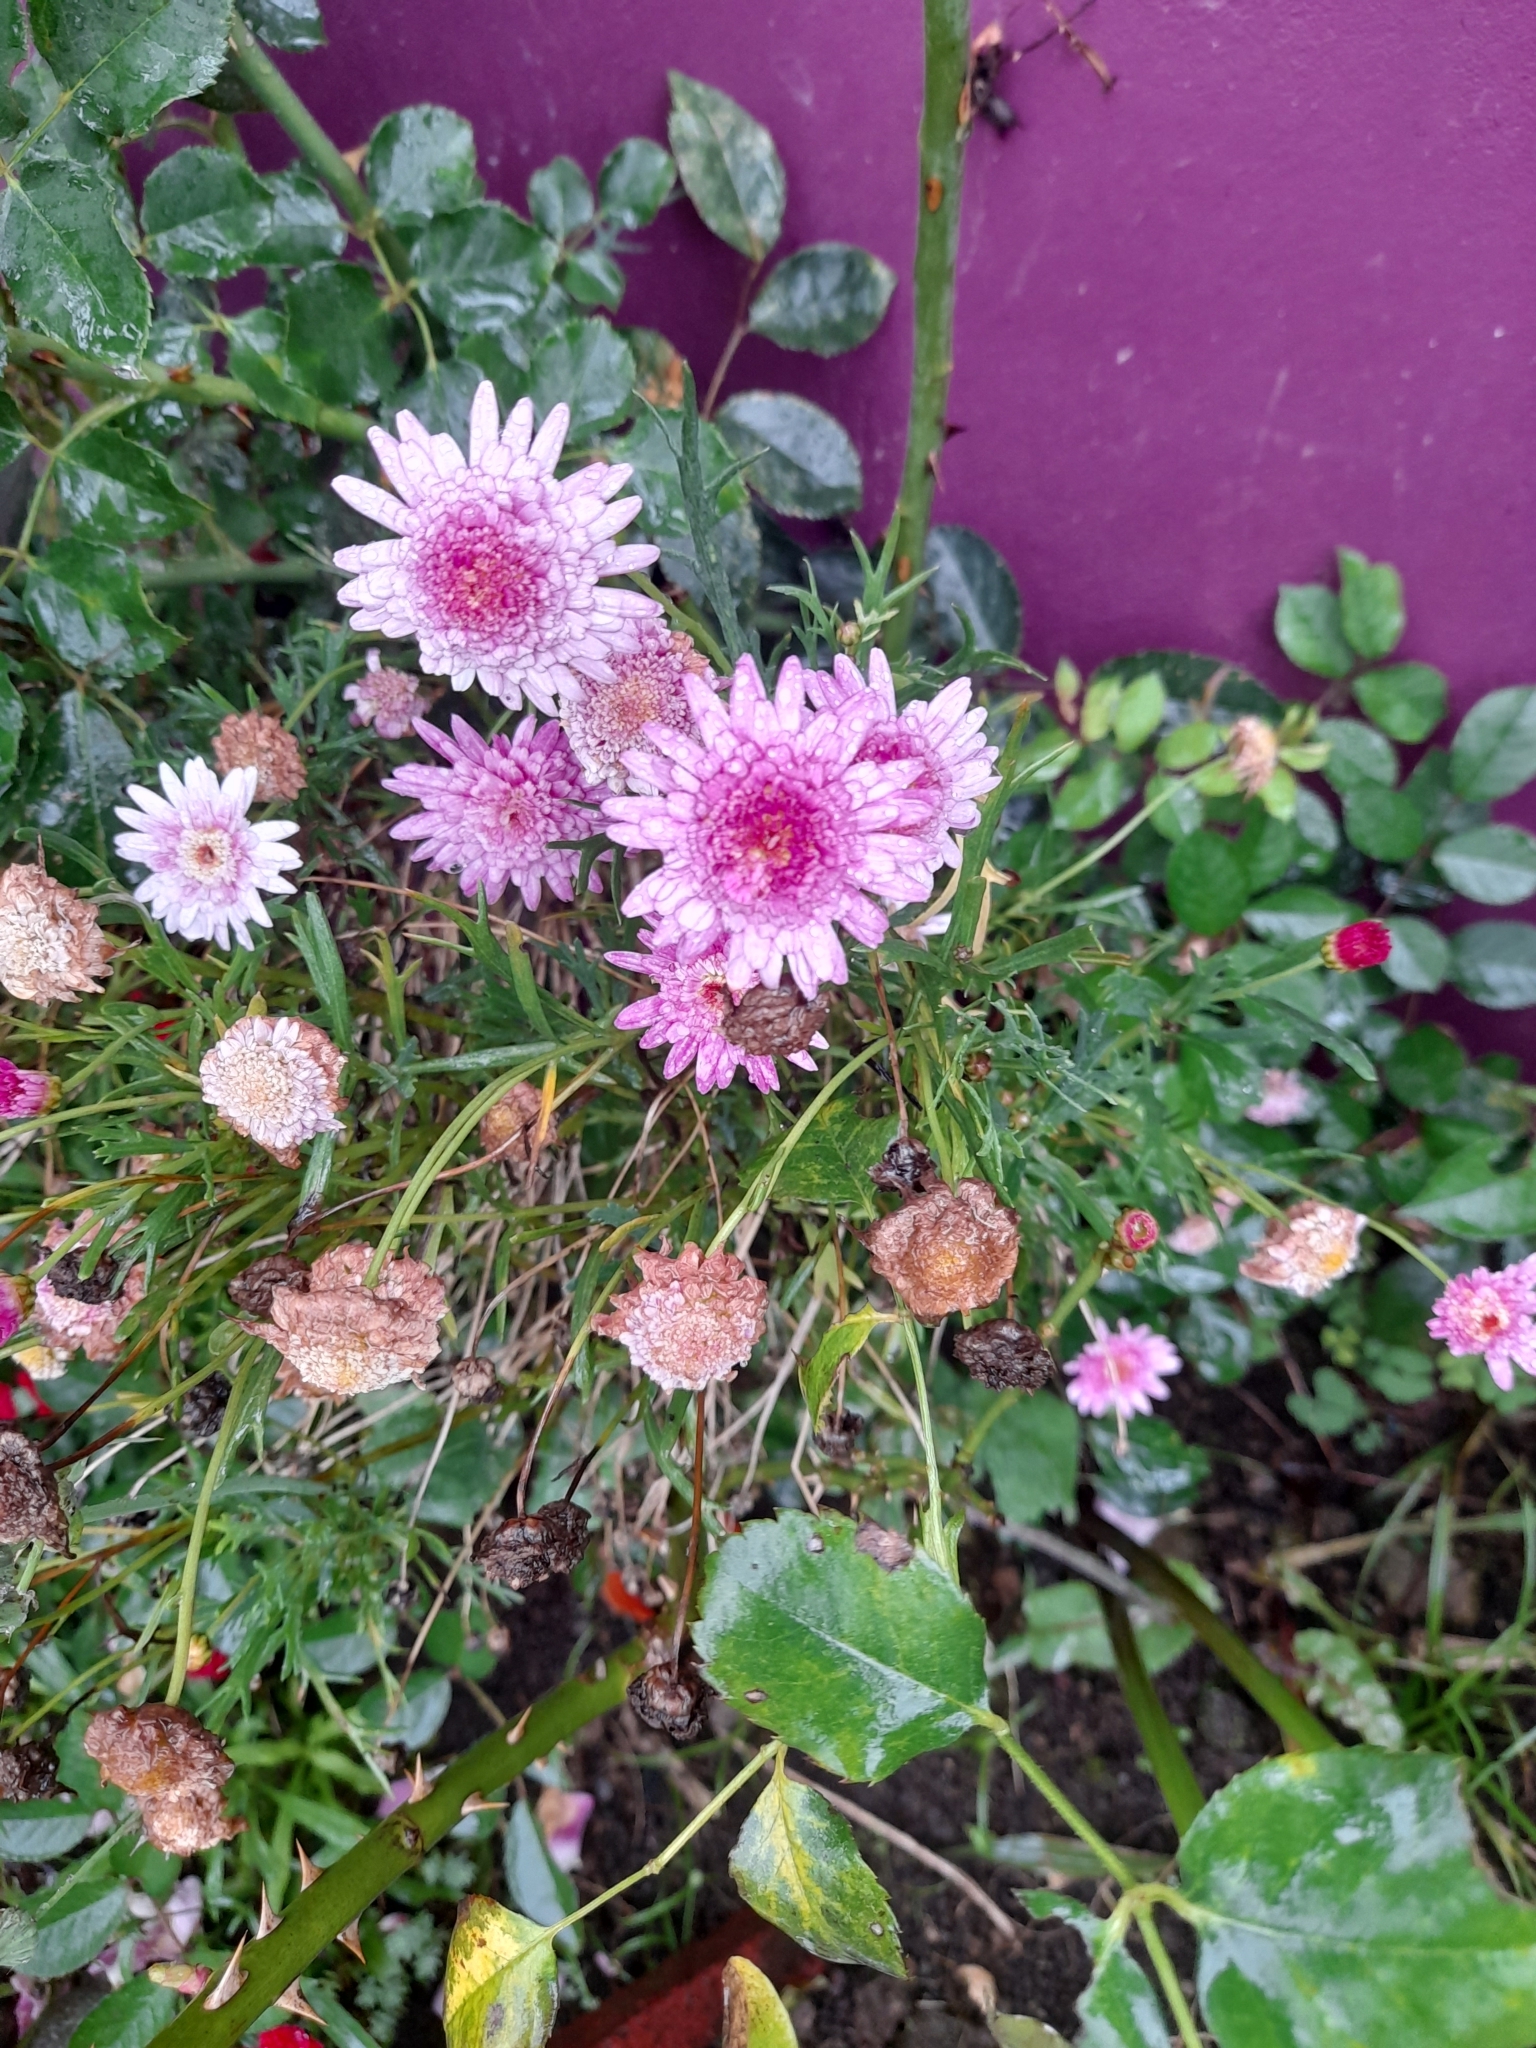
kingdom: Plantae
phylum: Tracheophyta
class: Magnoliopsida
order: Asterales
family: Asteraceae
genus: Chrysanthemum
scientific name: Chrysanthemum morifolium
